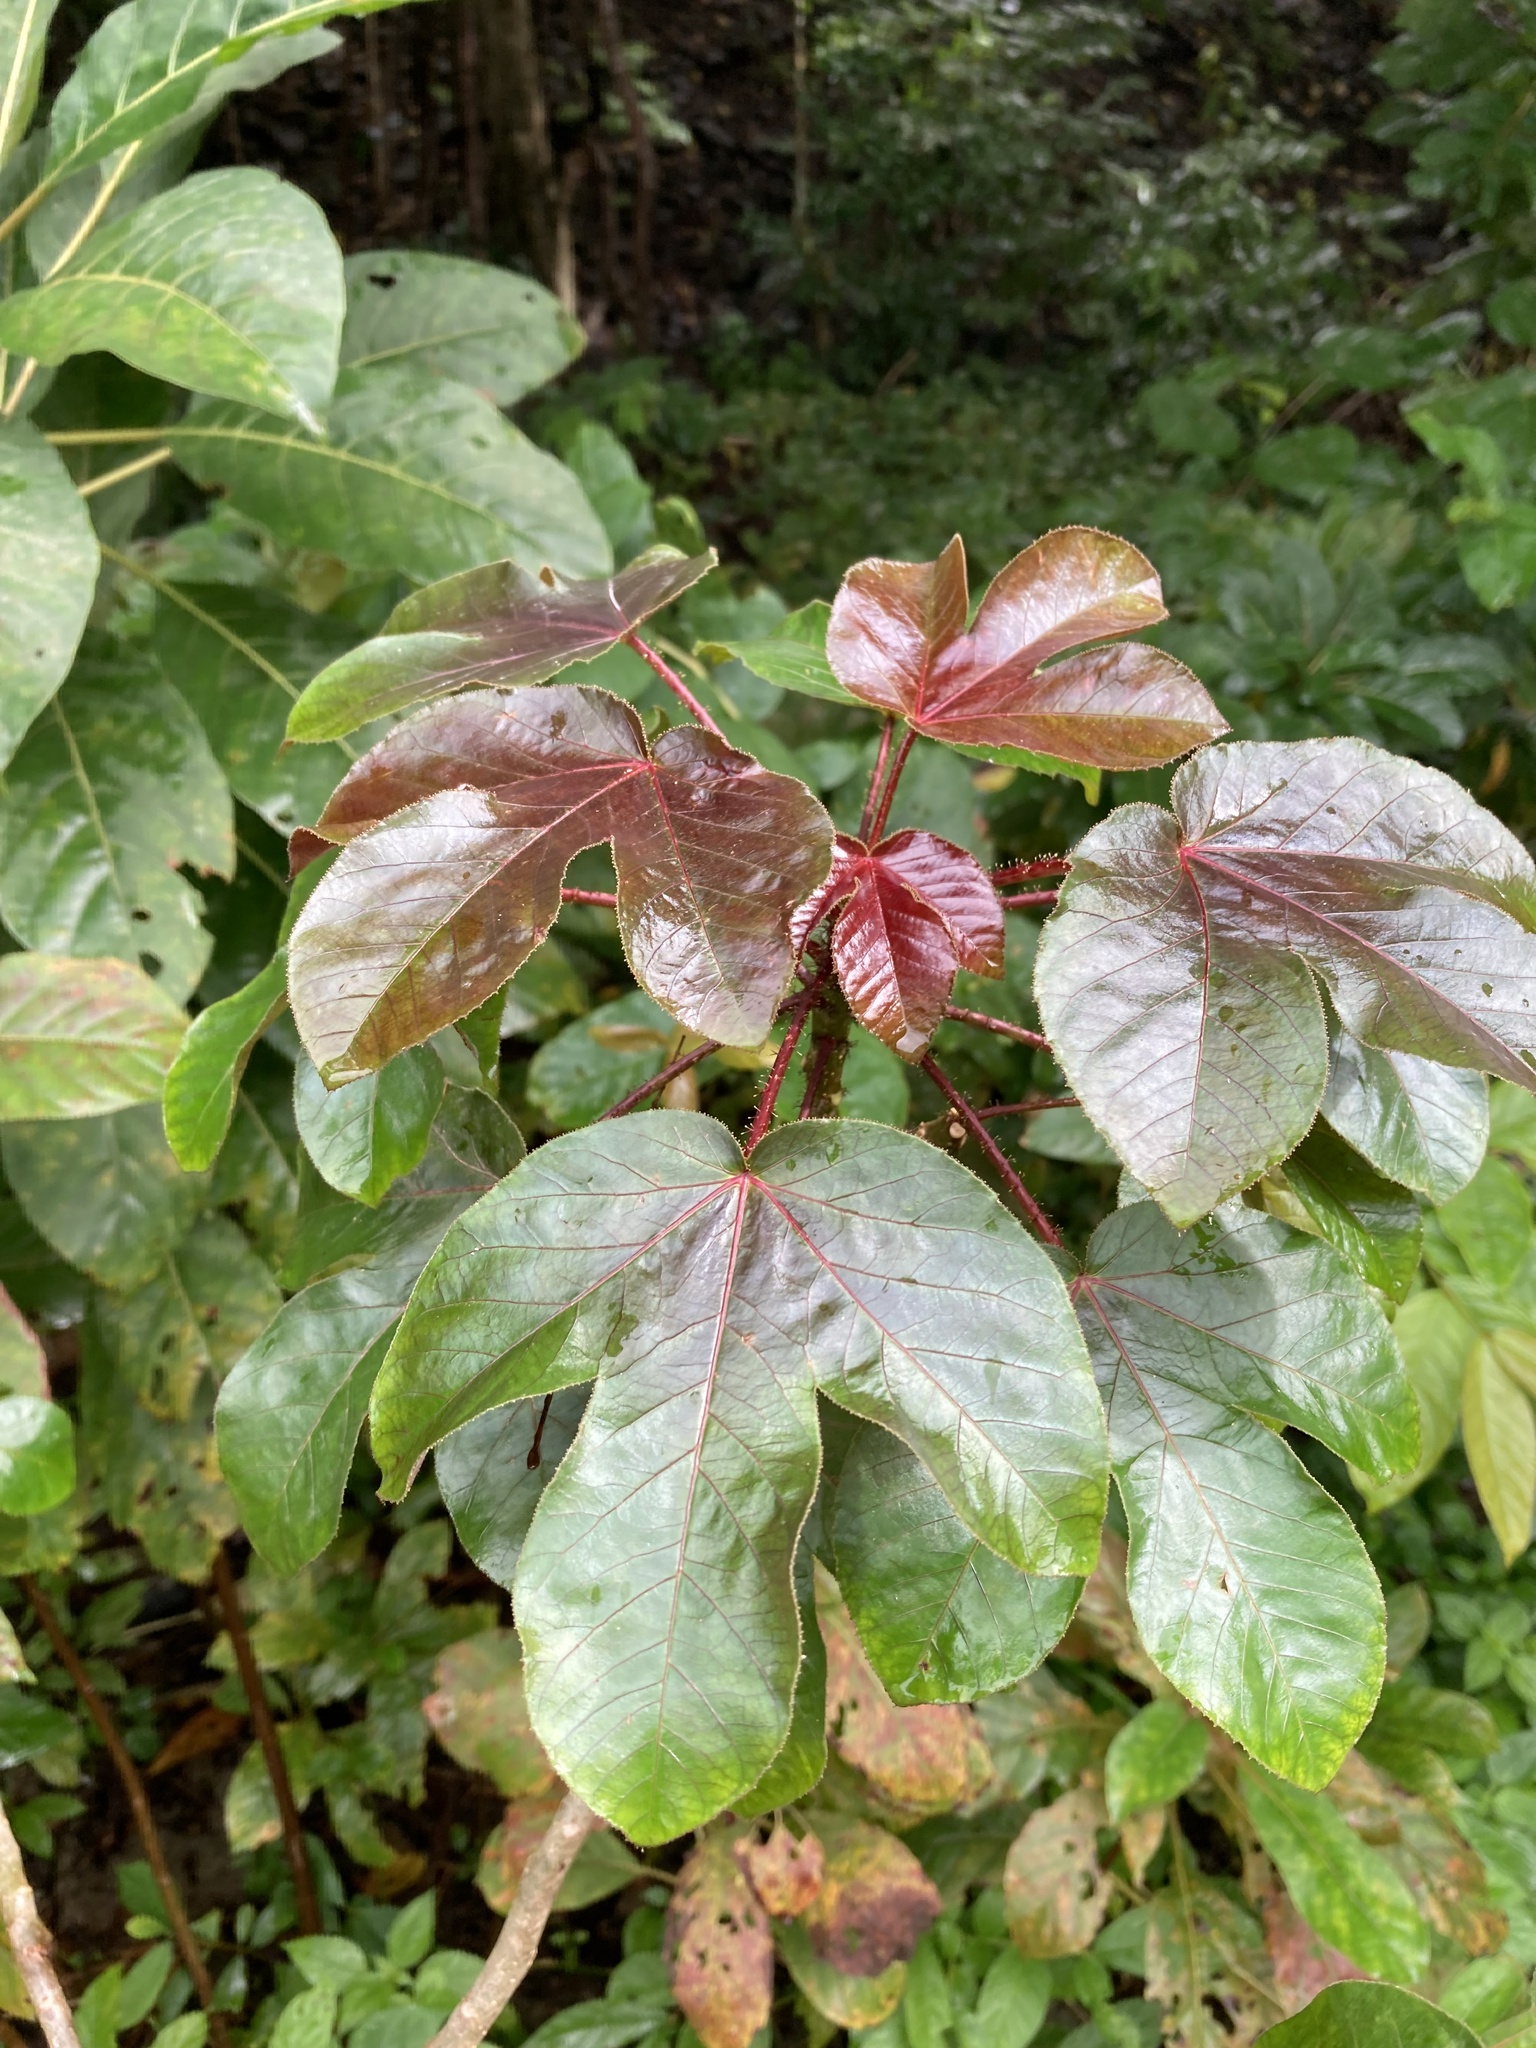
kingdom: Plantae
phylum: Tracheophyta
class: Magnoliopsida
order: Malpighiales
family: Euphorbiaceae
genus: Jatropha
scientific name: Jatropha gossypiifolia
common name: Bellyache bush
